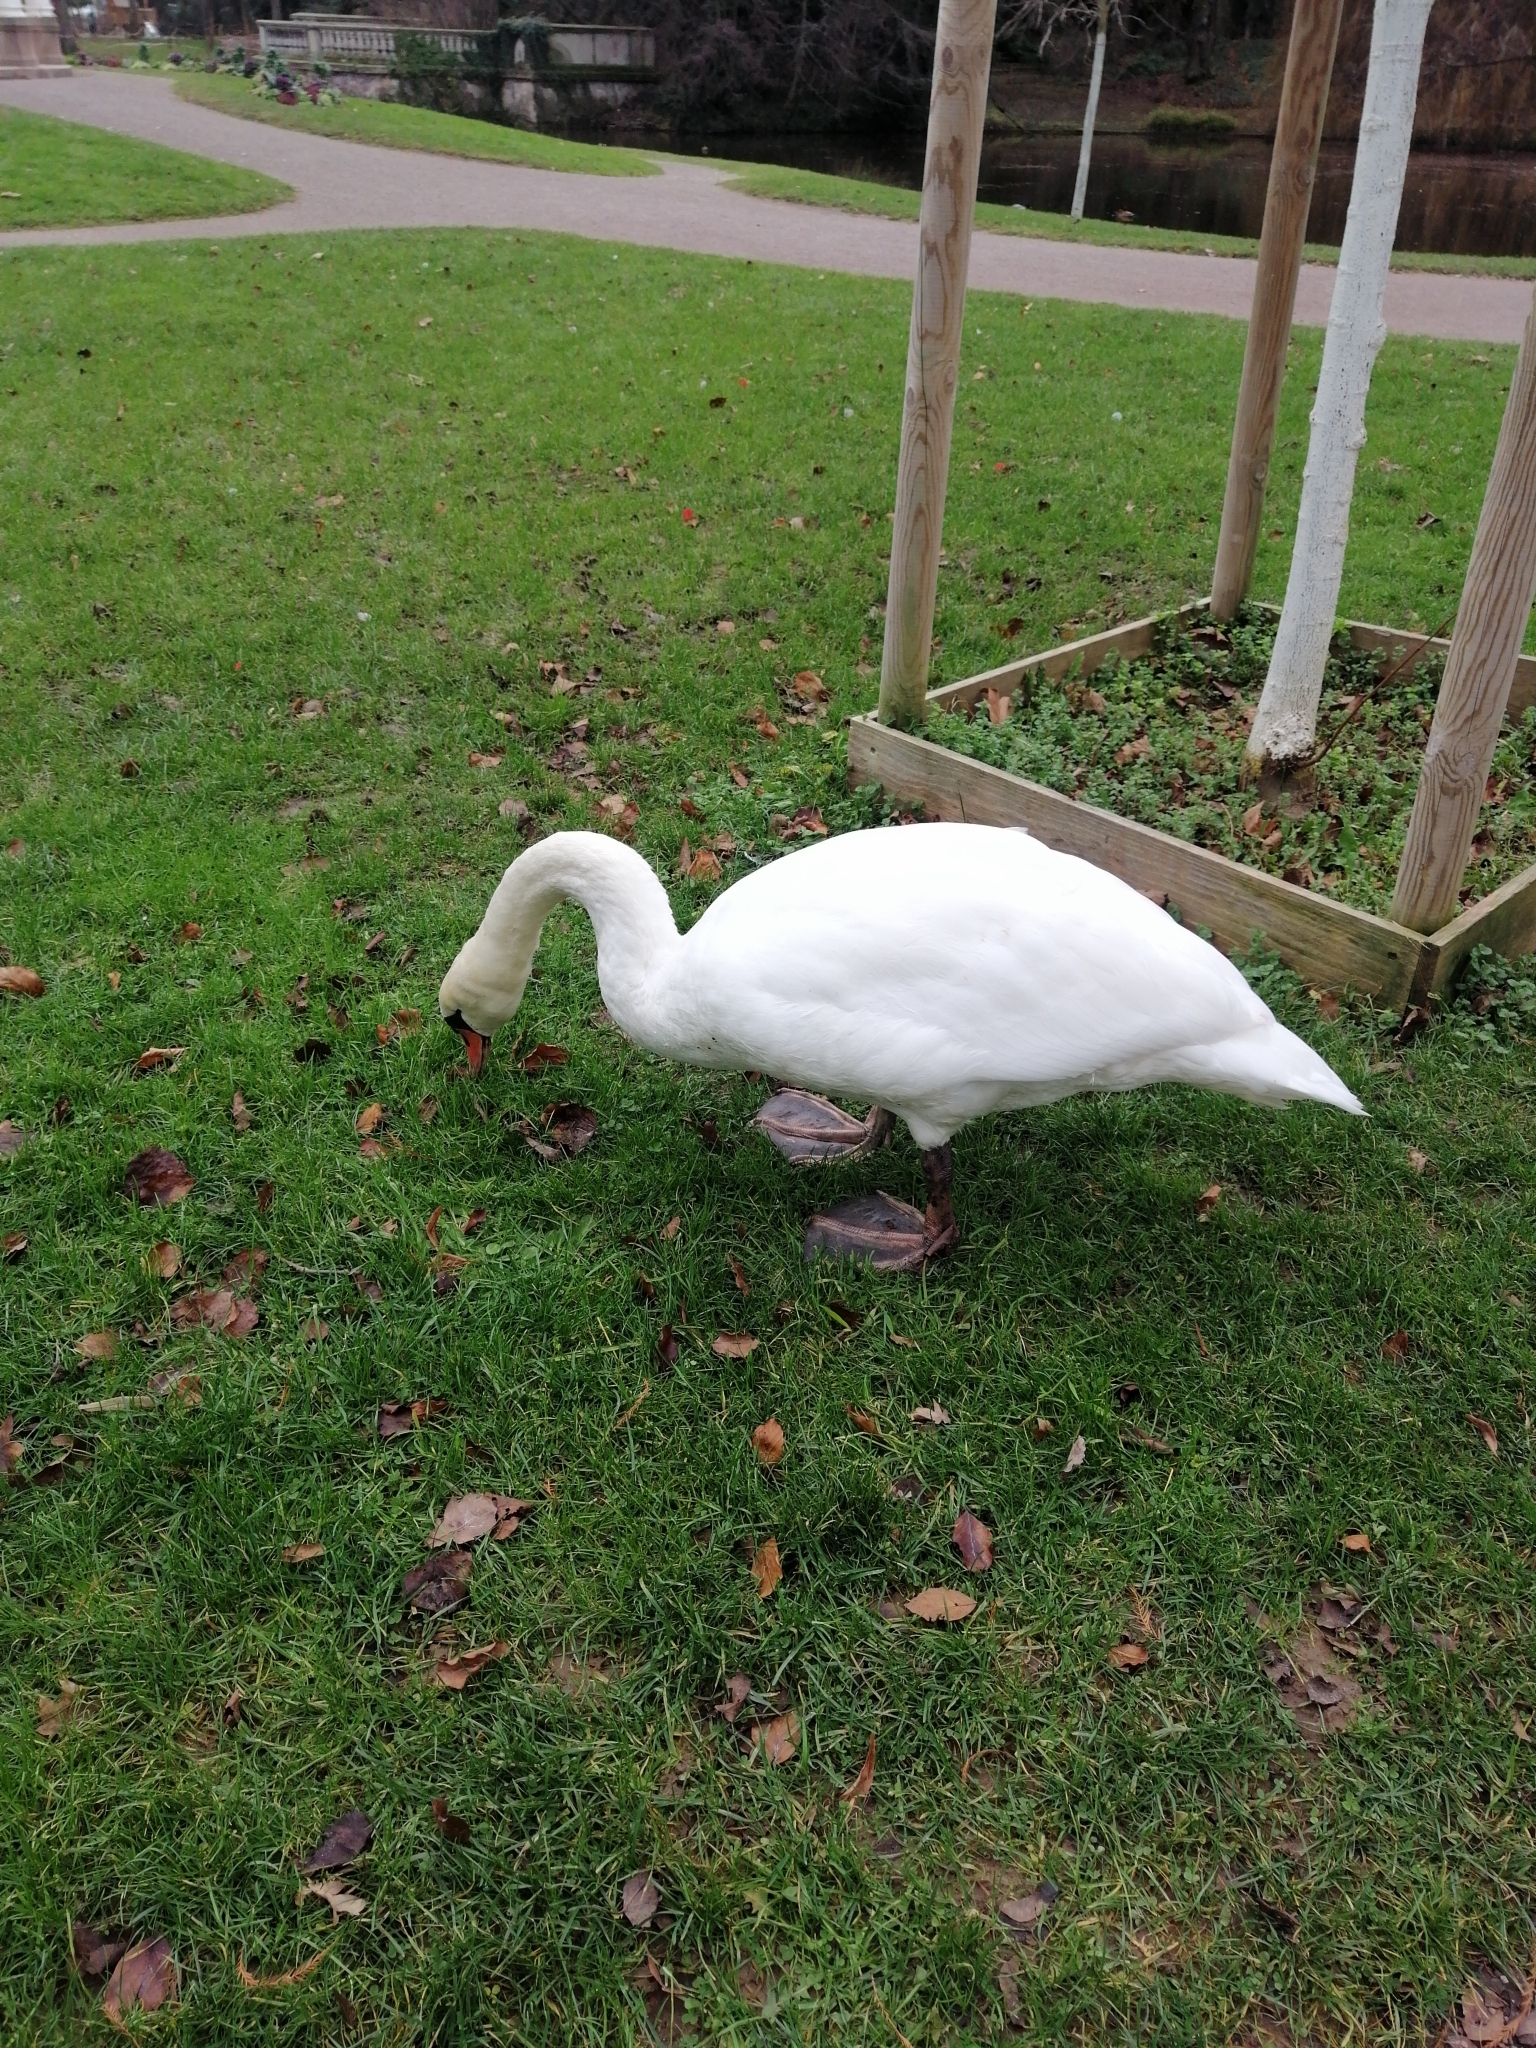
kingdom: Animalia
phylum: Chordata
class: Aves
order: Anseriformes
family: Anatidae
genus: Cygnus
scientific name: Cygnus olor
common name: Mute swan
